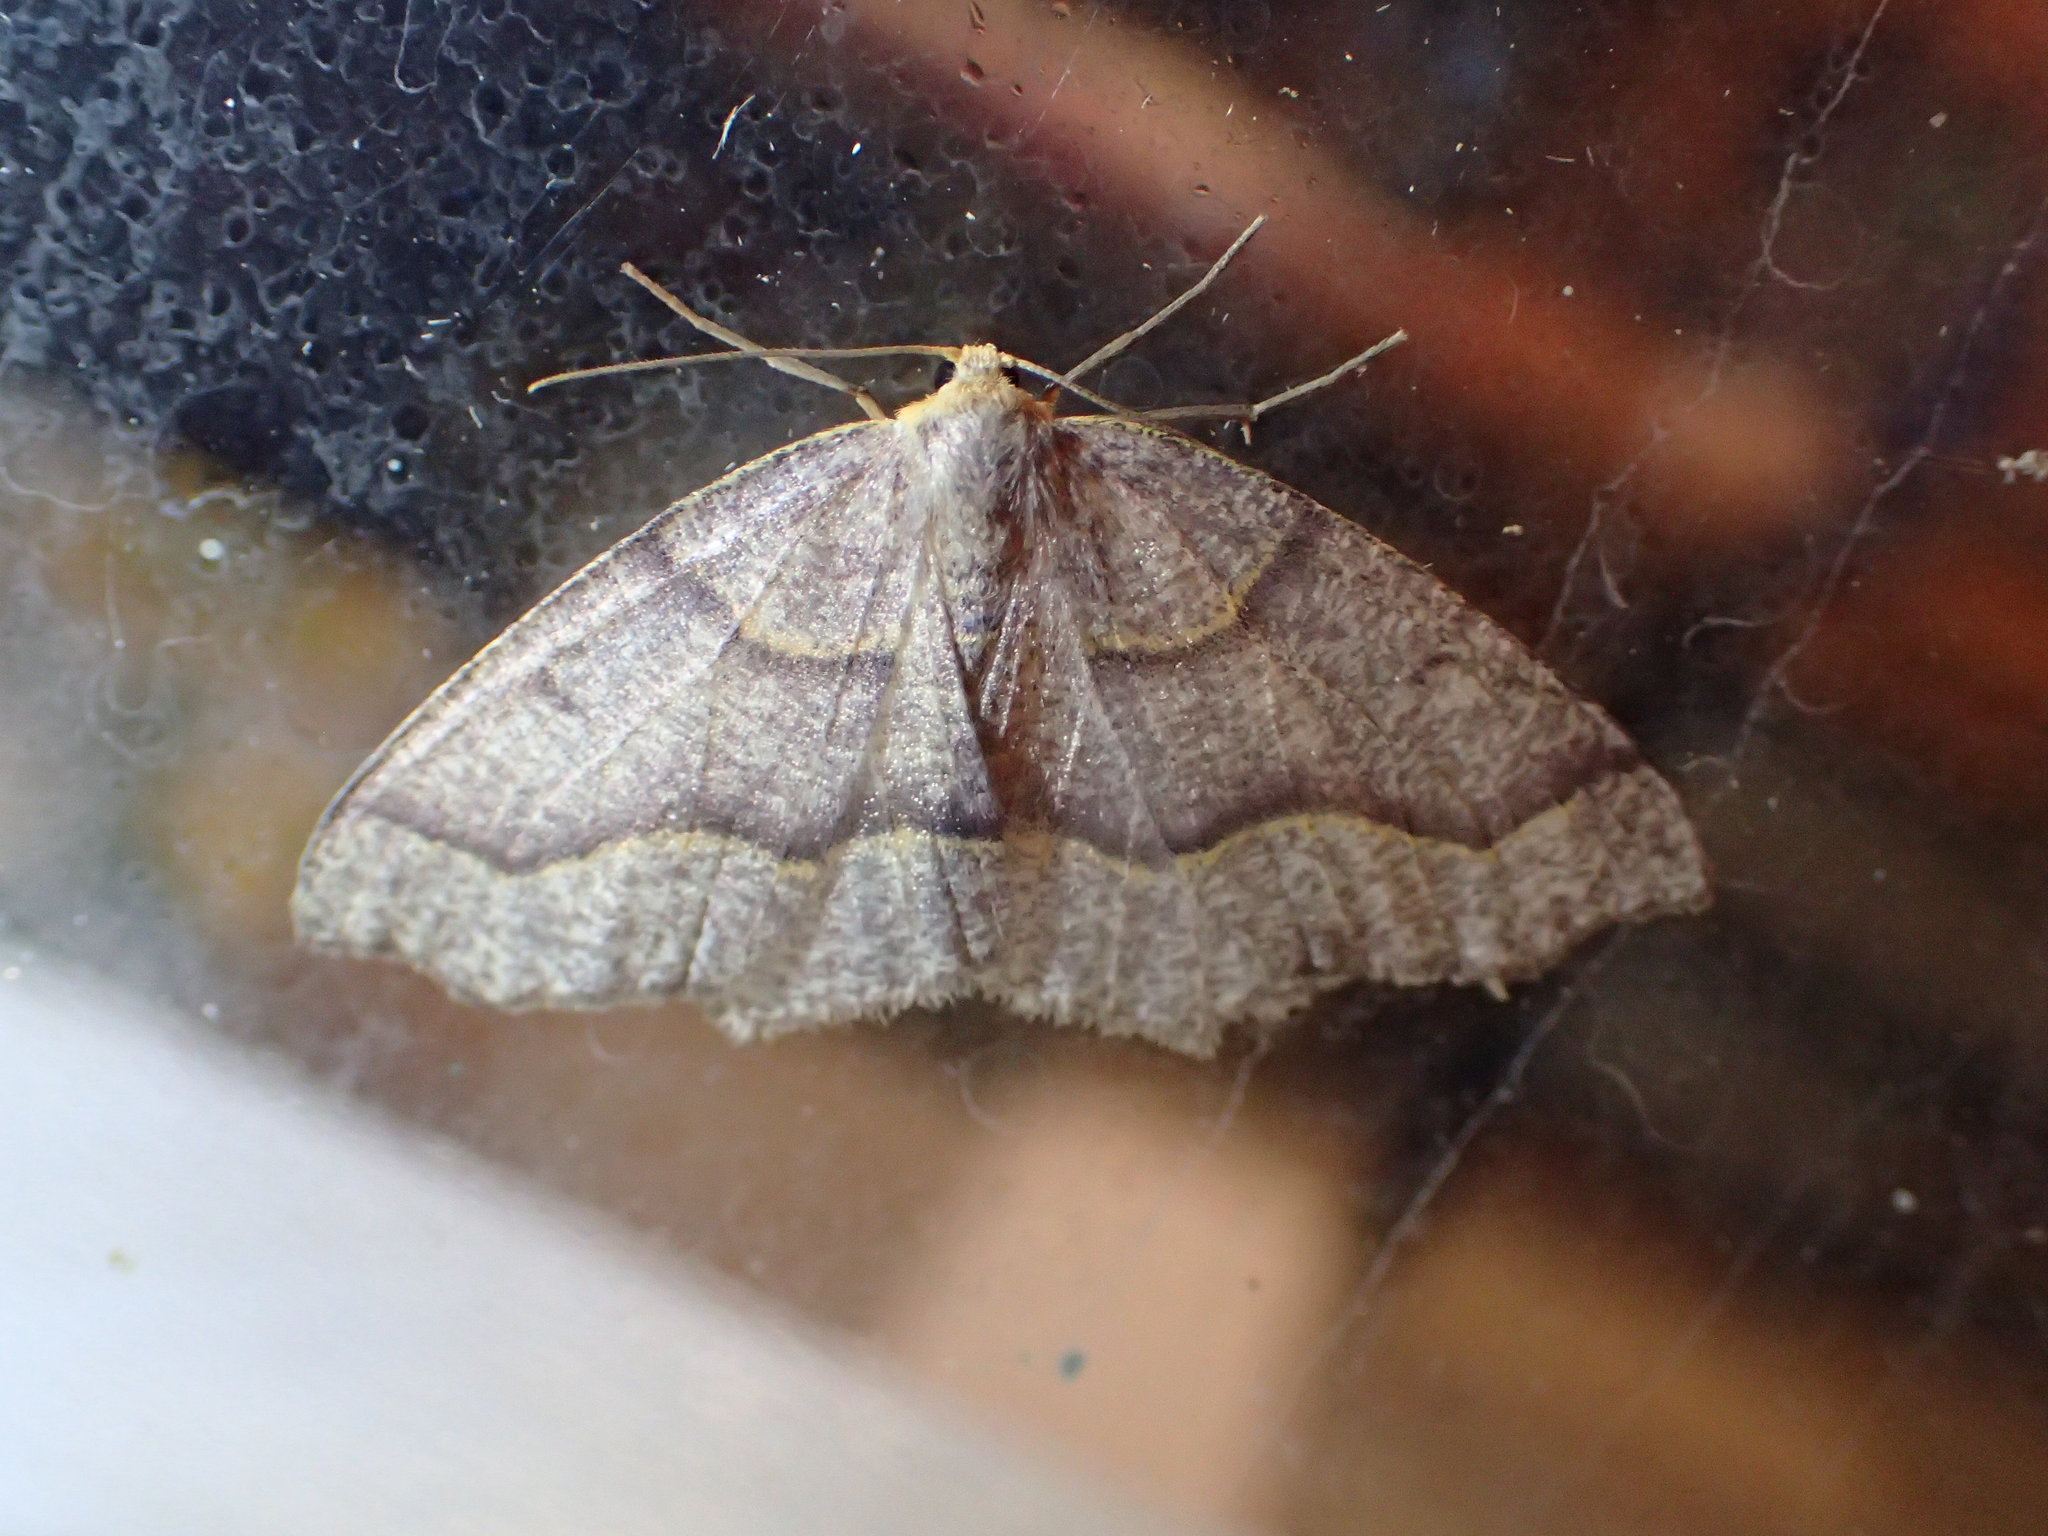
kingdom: Animalia
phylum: Arthropoda
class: Insecta
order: Lepidoptera
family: Geometridae
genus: Lambdina
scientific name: Lambdina fiscellaria
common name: Hemlock looper
